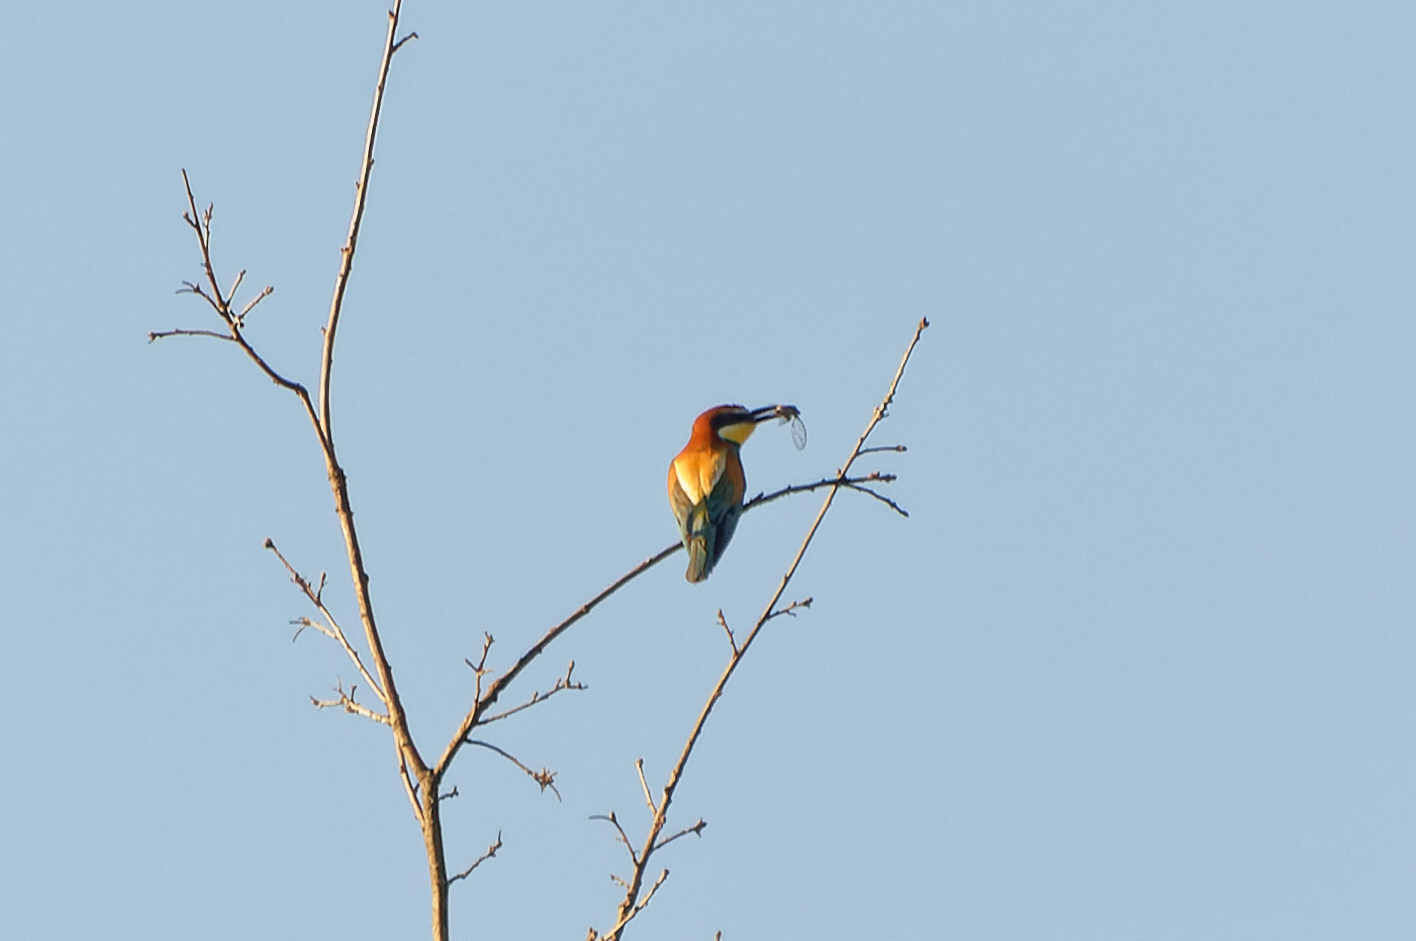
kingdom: Animalia
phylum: Chordata
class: Aves
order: Coraciiformes
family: Meropidae
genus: Merops
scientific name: Merops apiaster
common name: European bee-eater
